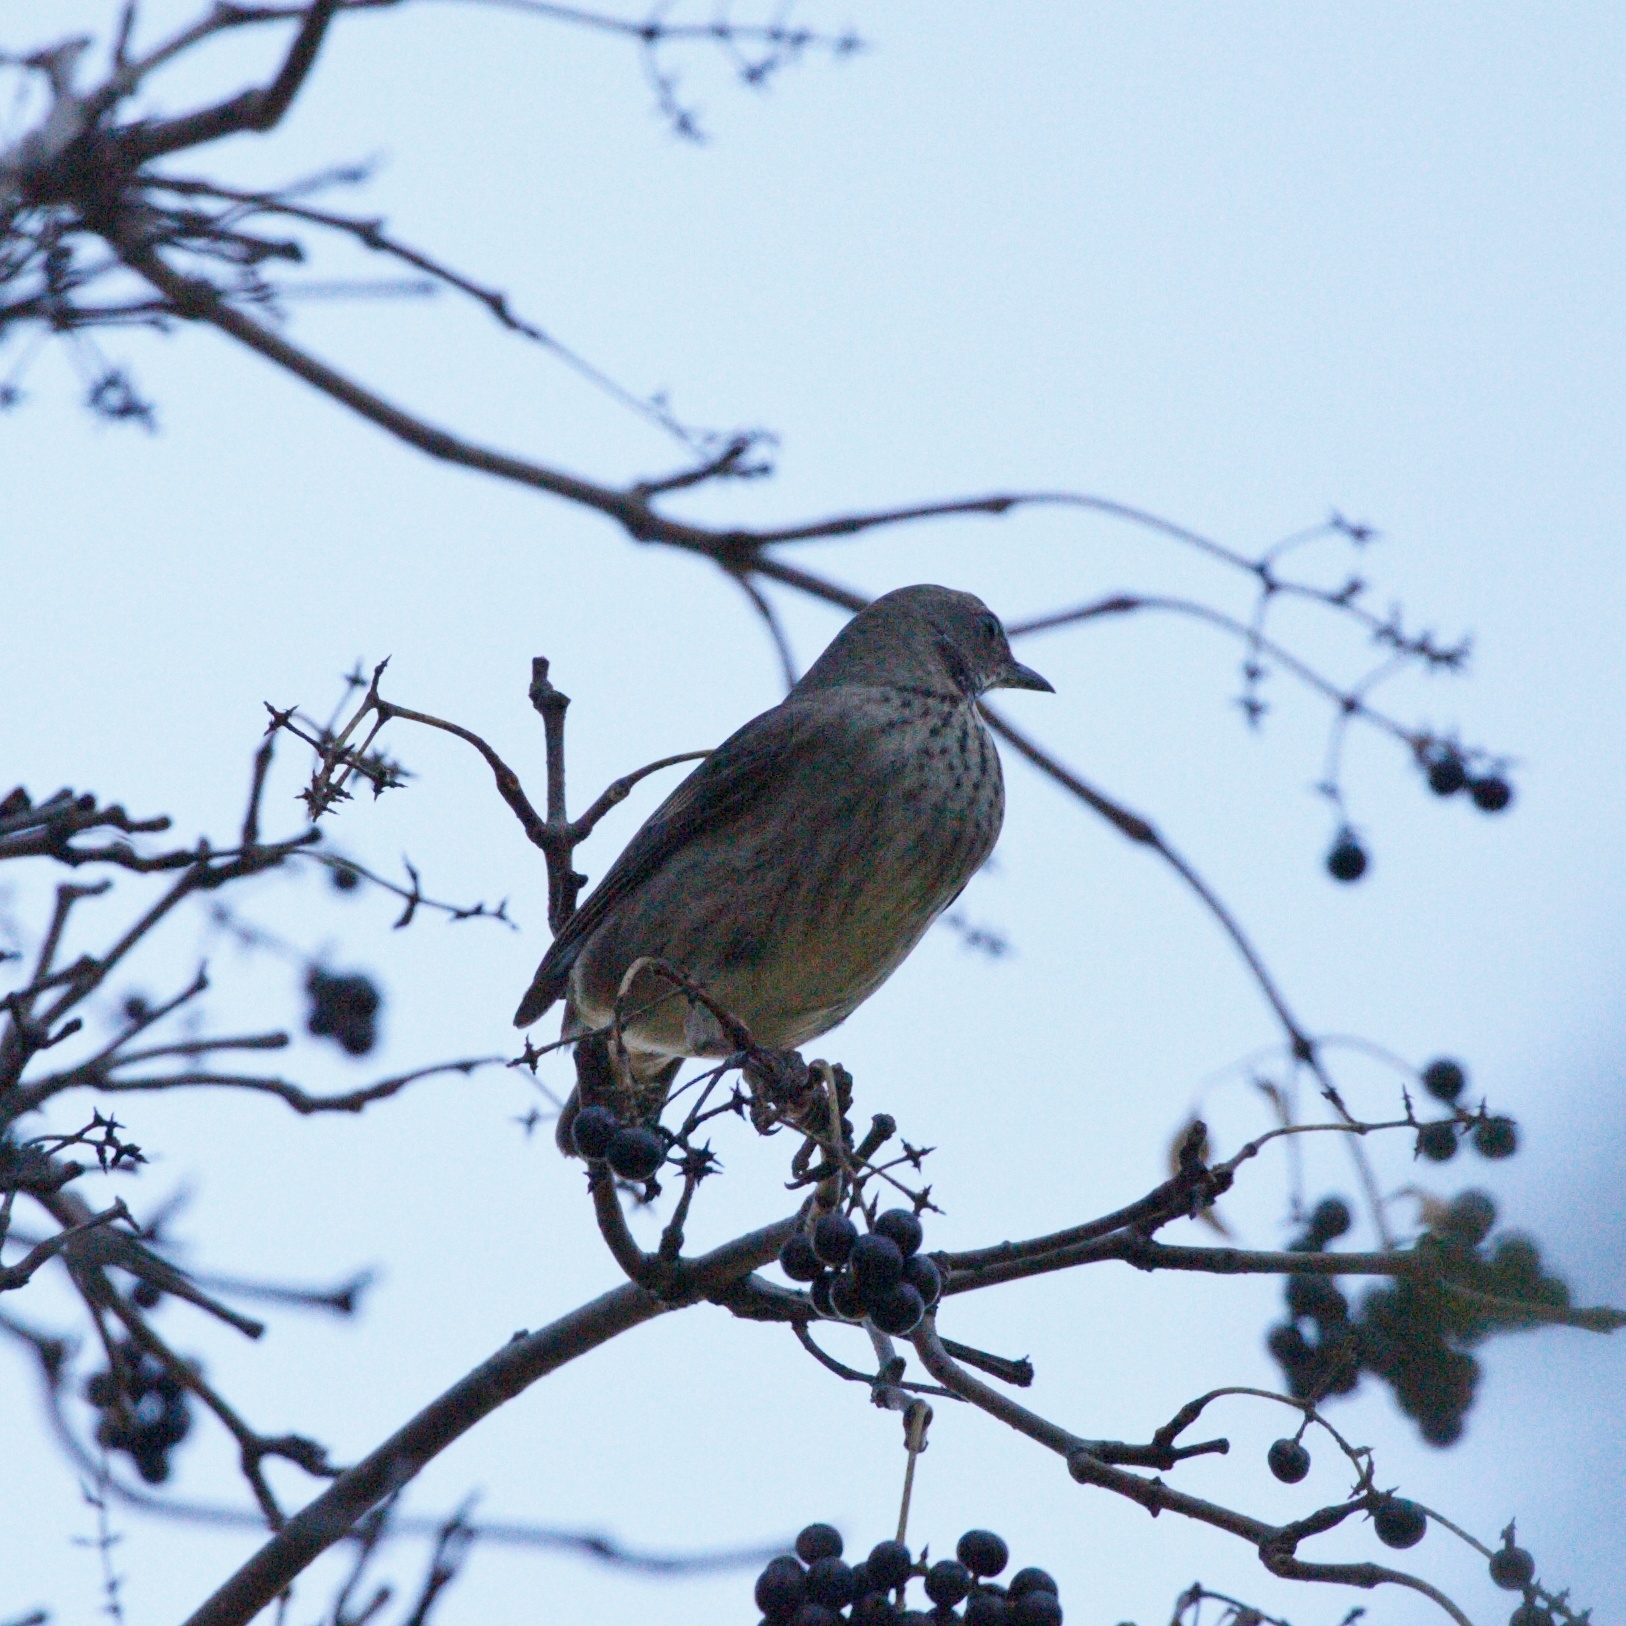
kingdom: Animalia
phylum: Chordata
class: Aves
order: Passeriformes
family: Turdidae
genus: Turdus
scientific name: Turdus atrogularis
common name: Black-throated thrush
